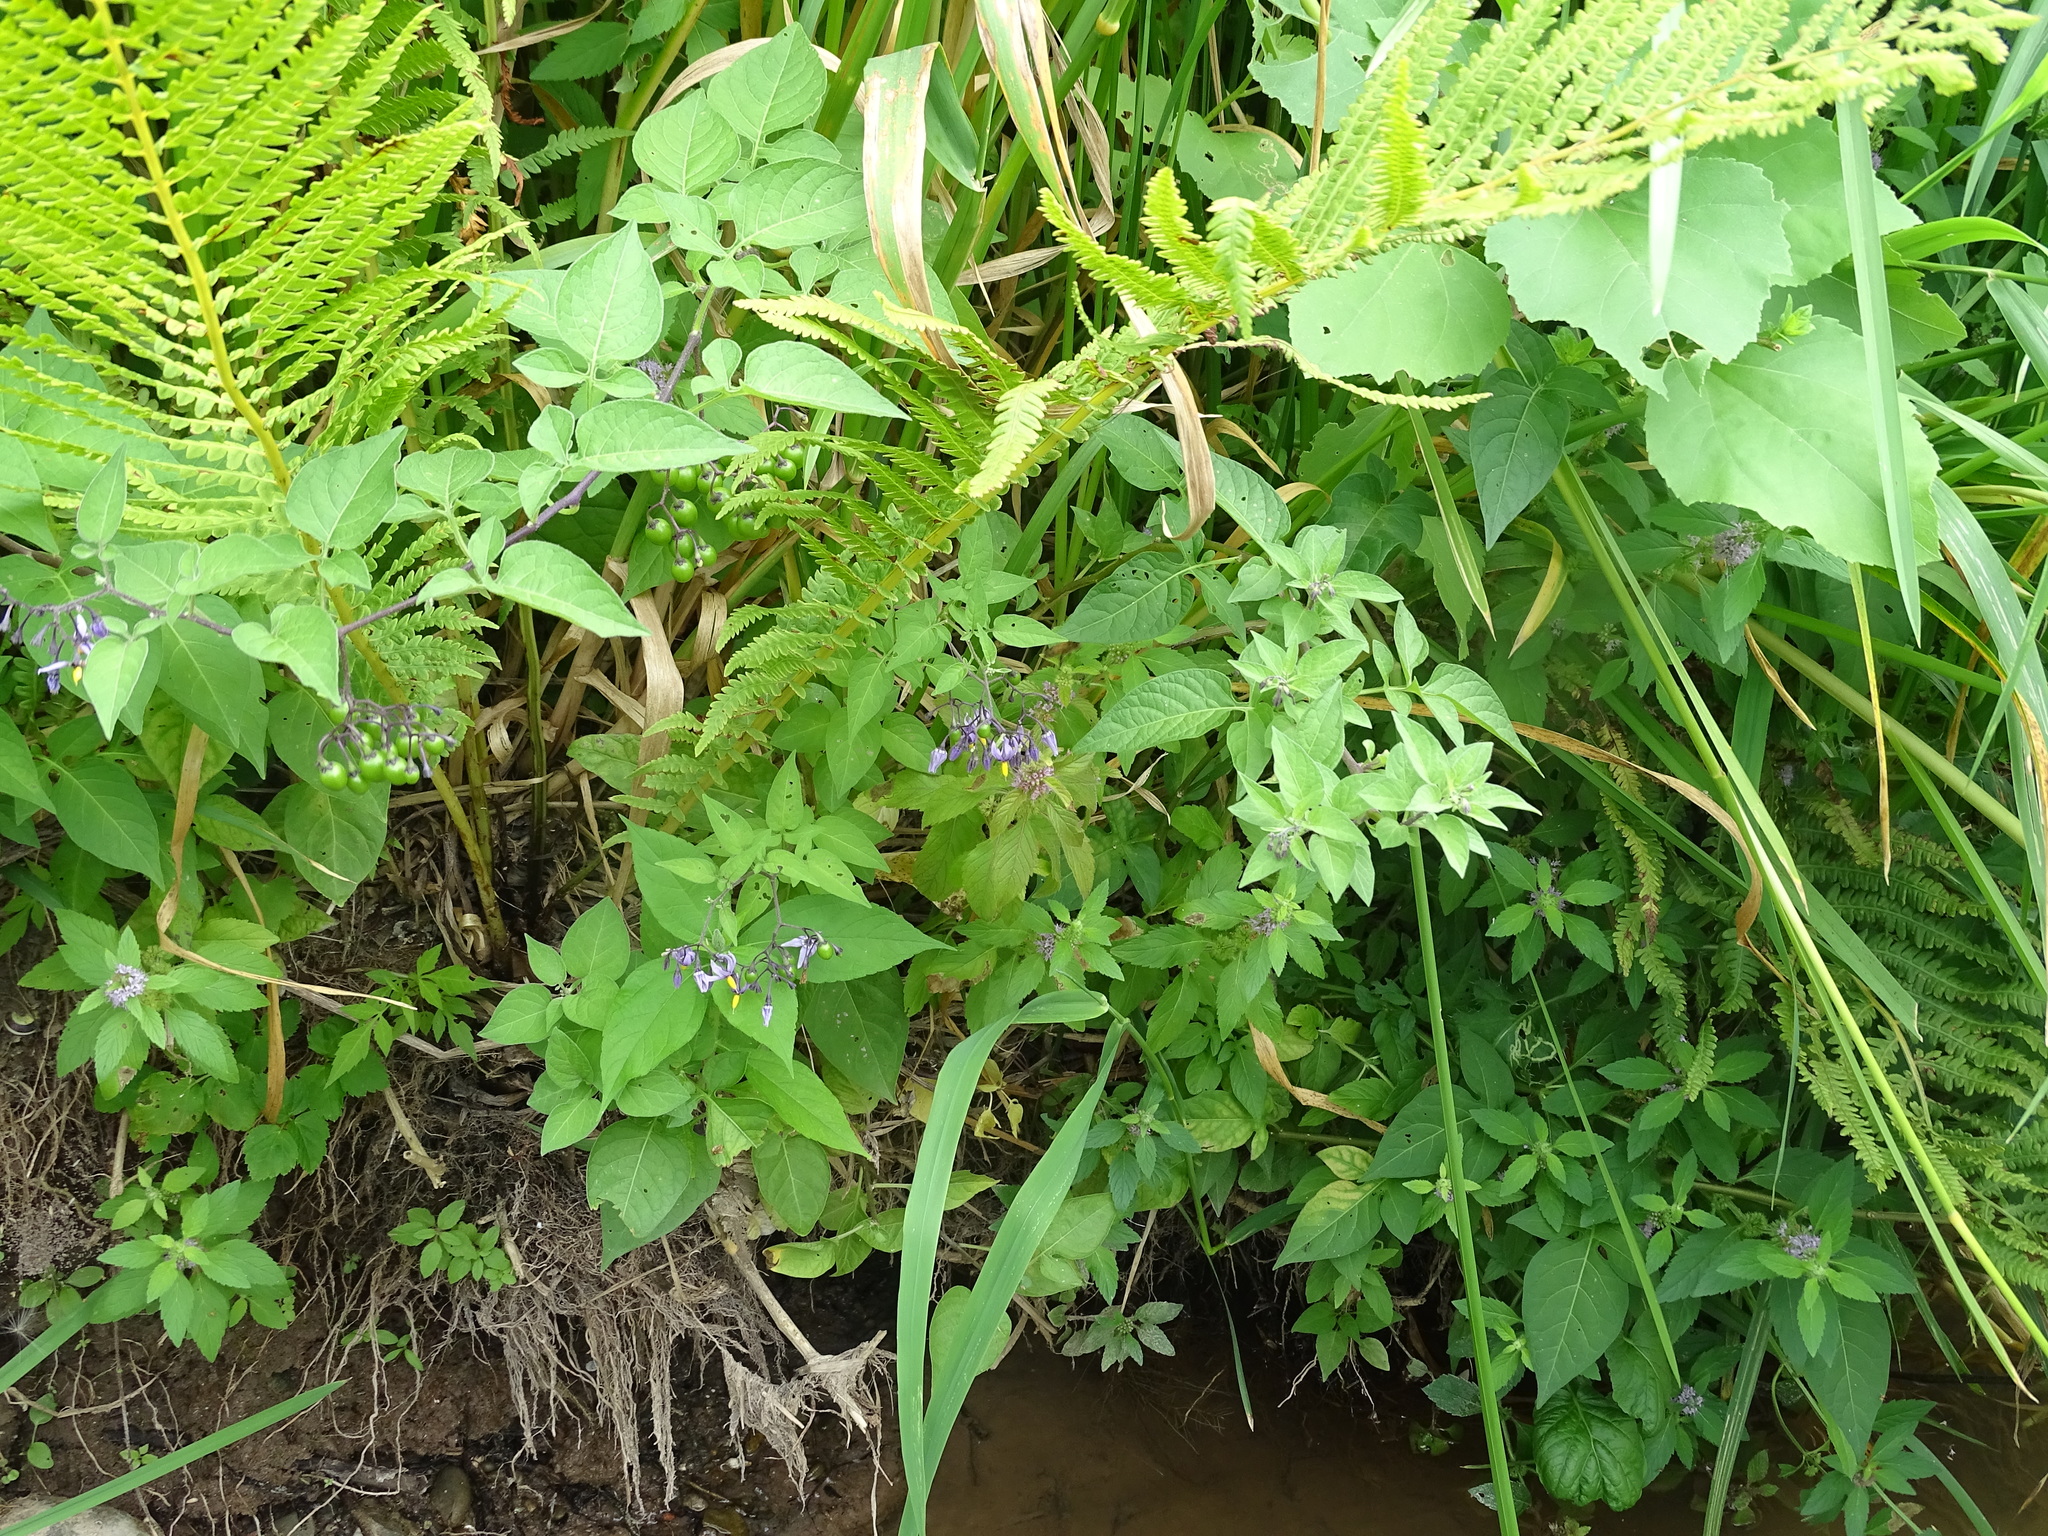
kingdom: Plantae
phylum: Tracheophyta
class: Magnoliopsida
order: Solanales
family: Solanaceae
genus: Solanum
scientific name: Solanum dulcamara
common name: Climbing nightshade
